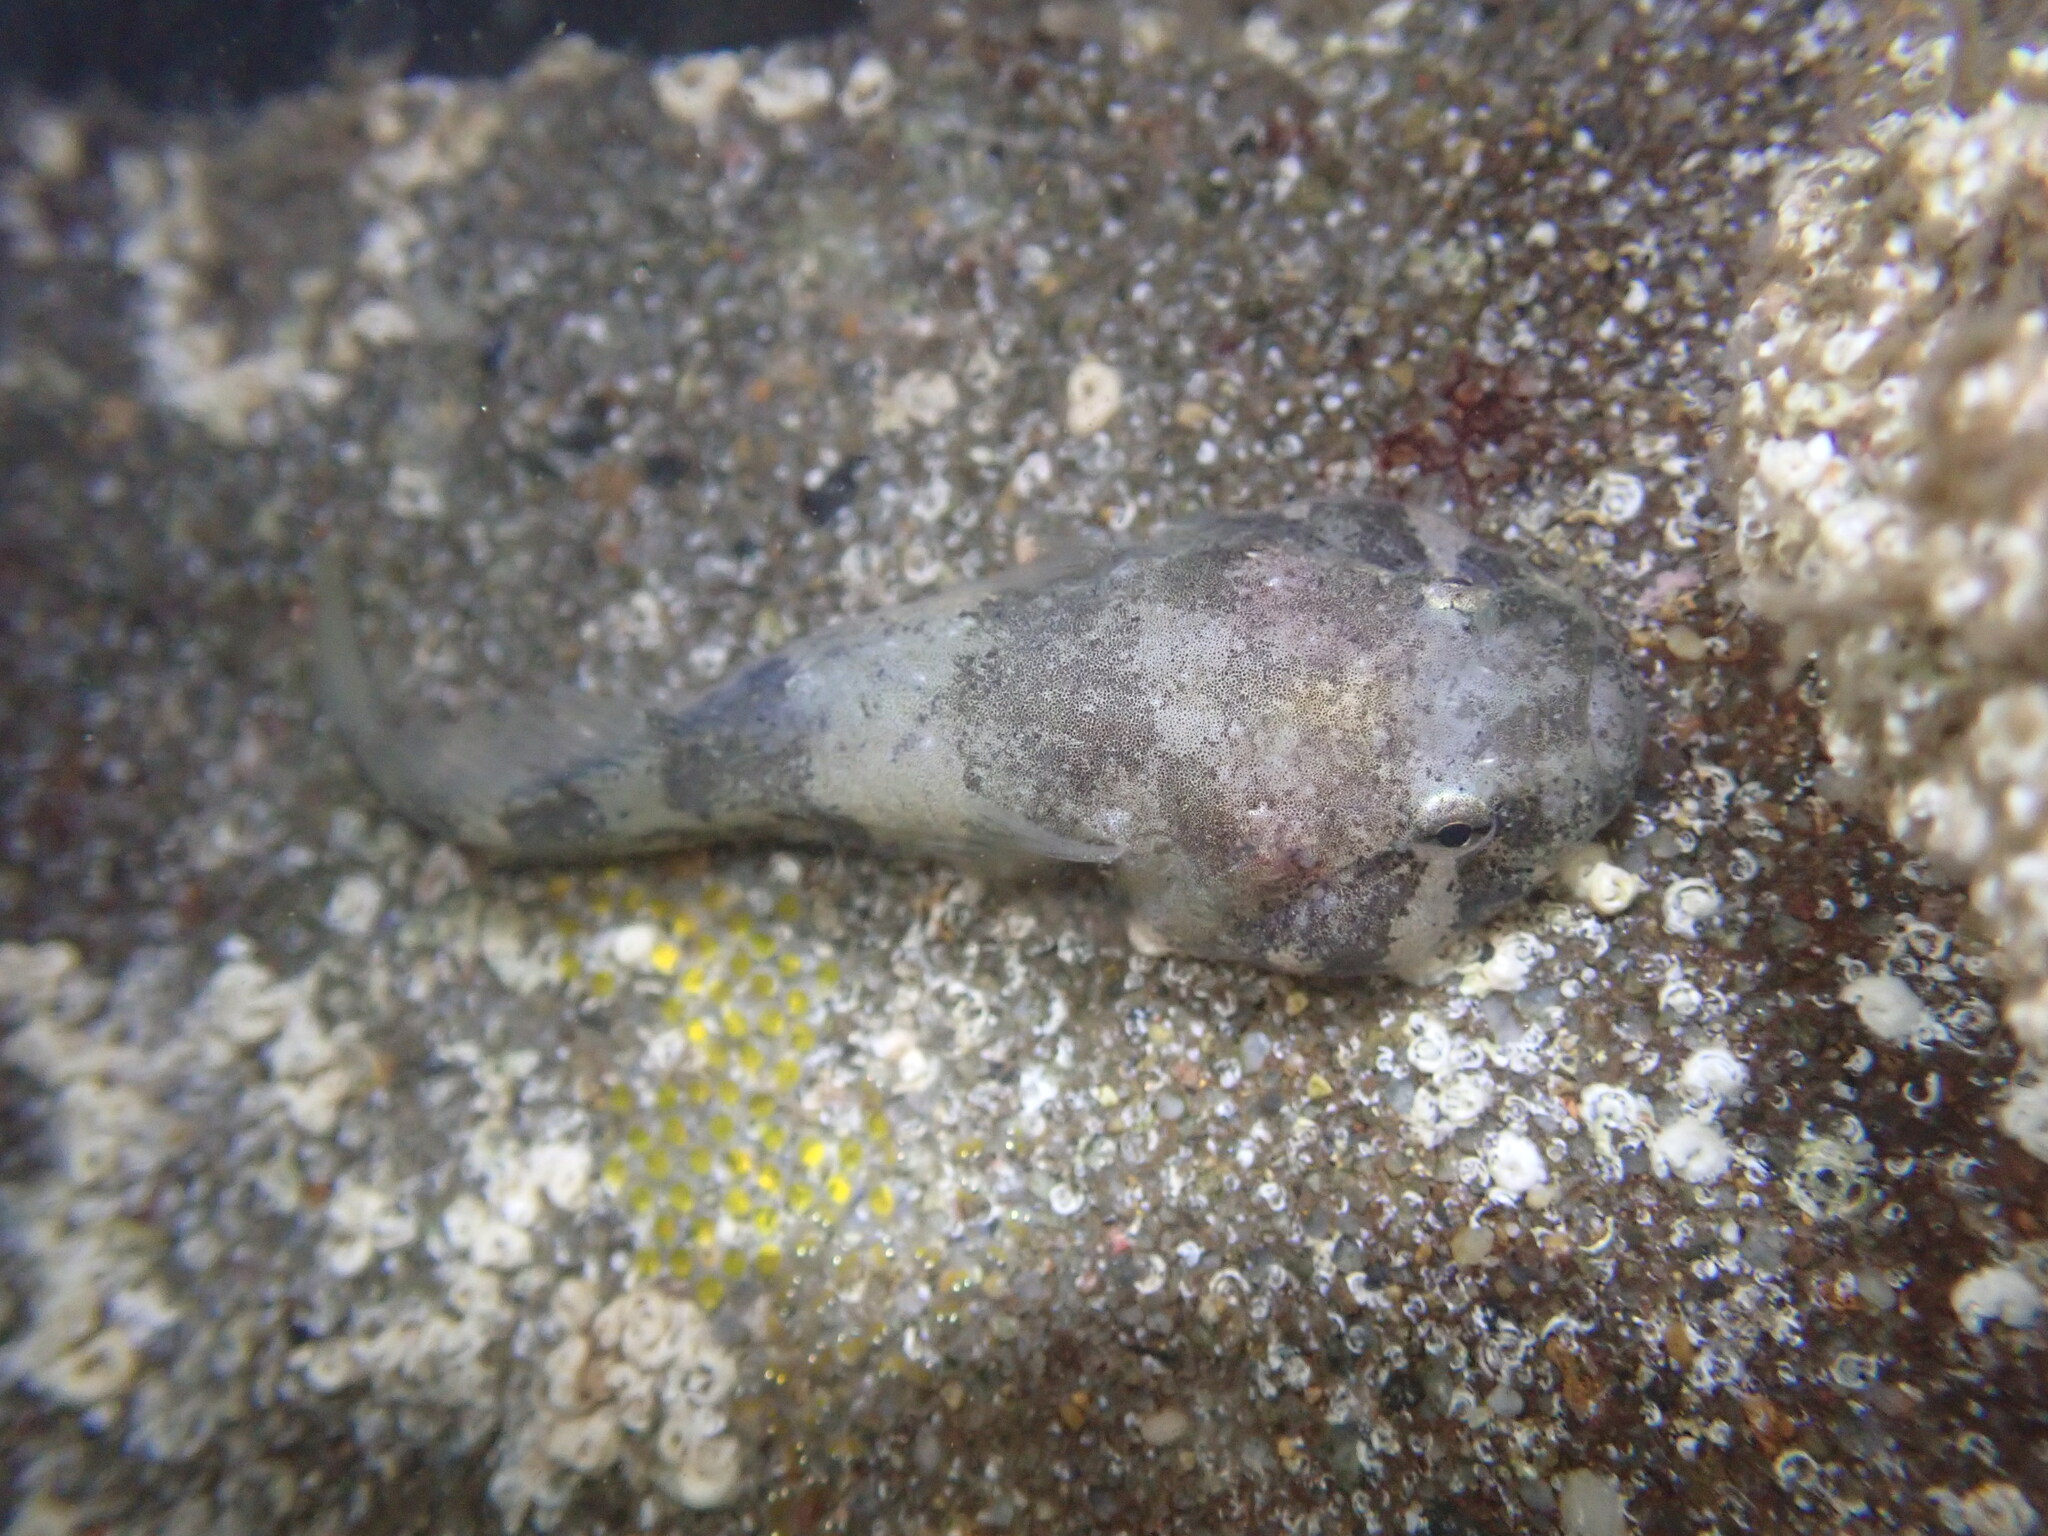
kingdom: Animalia
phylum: Chordata
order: Gobiesociformes
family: Gobiesocidae
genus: Gobiesox
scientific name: Gobiesox rhessodon
